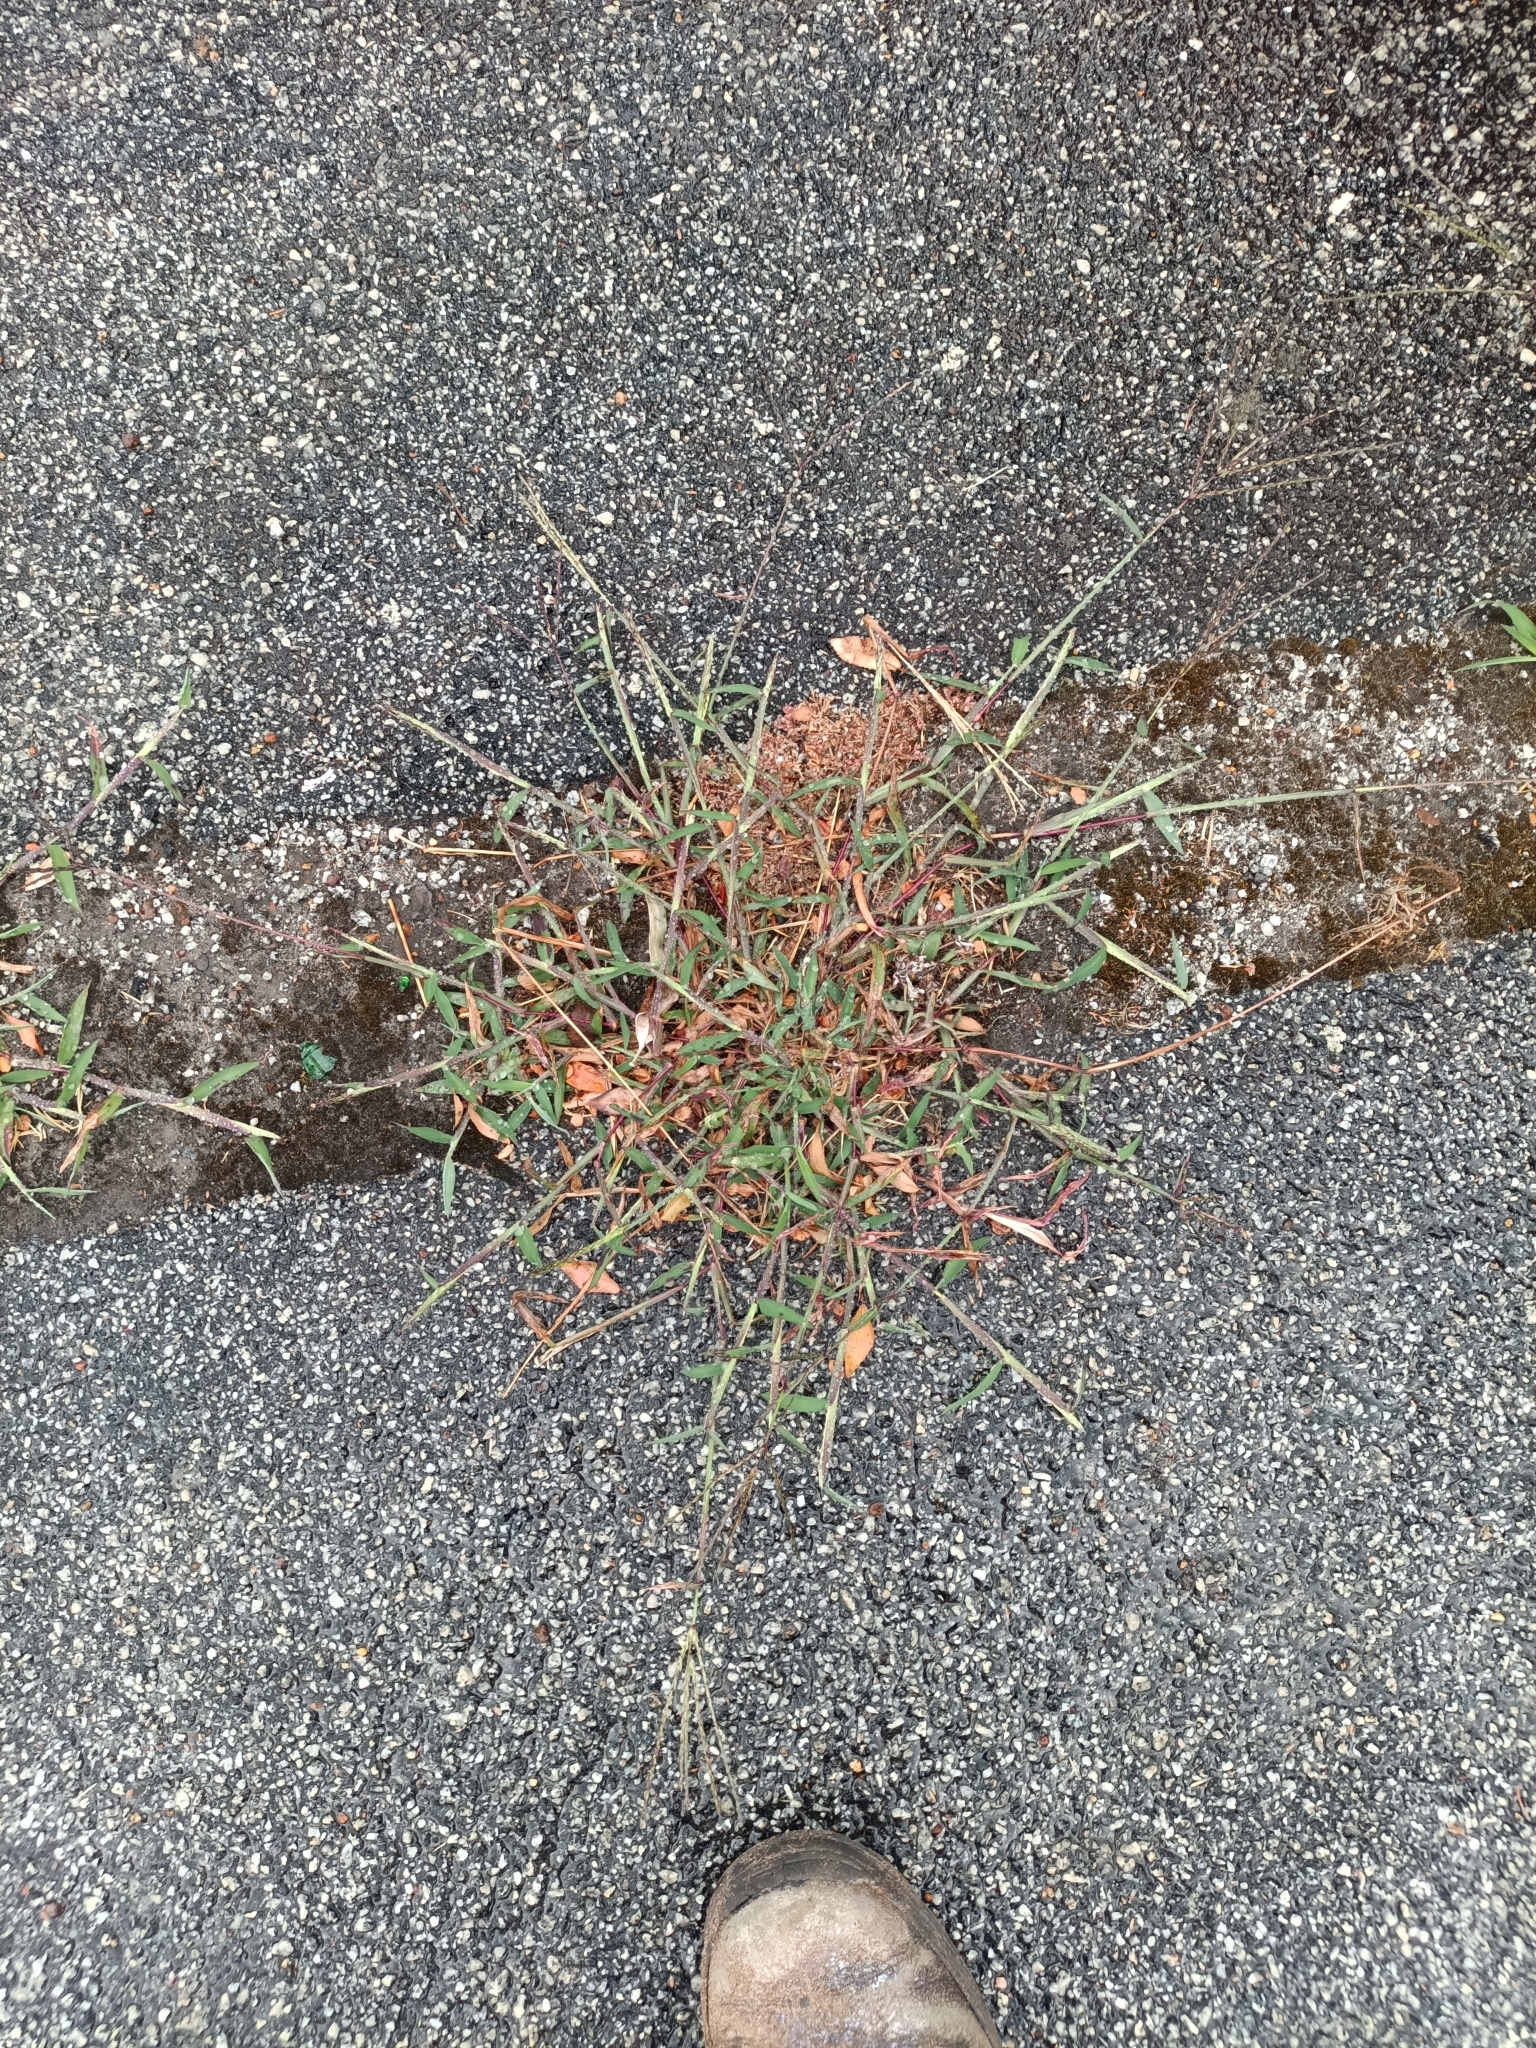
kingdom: Plantae
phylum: Tracheophyta
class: Liliopsida
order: Poales
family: Poaceae
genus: Digitaria
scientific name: Digitaria sanguinalis
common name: Hairy crabgrass
